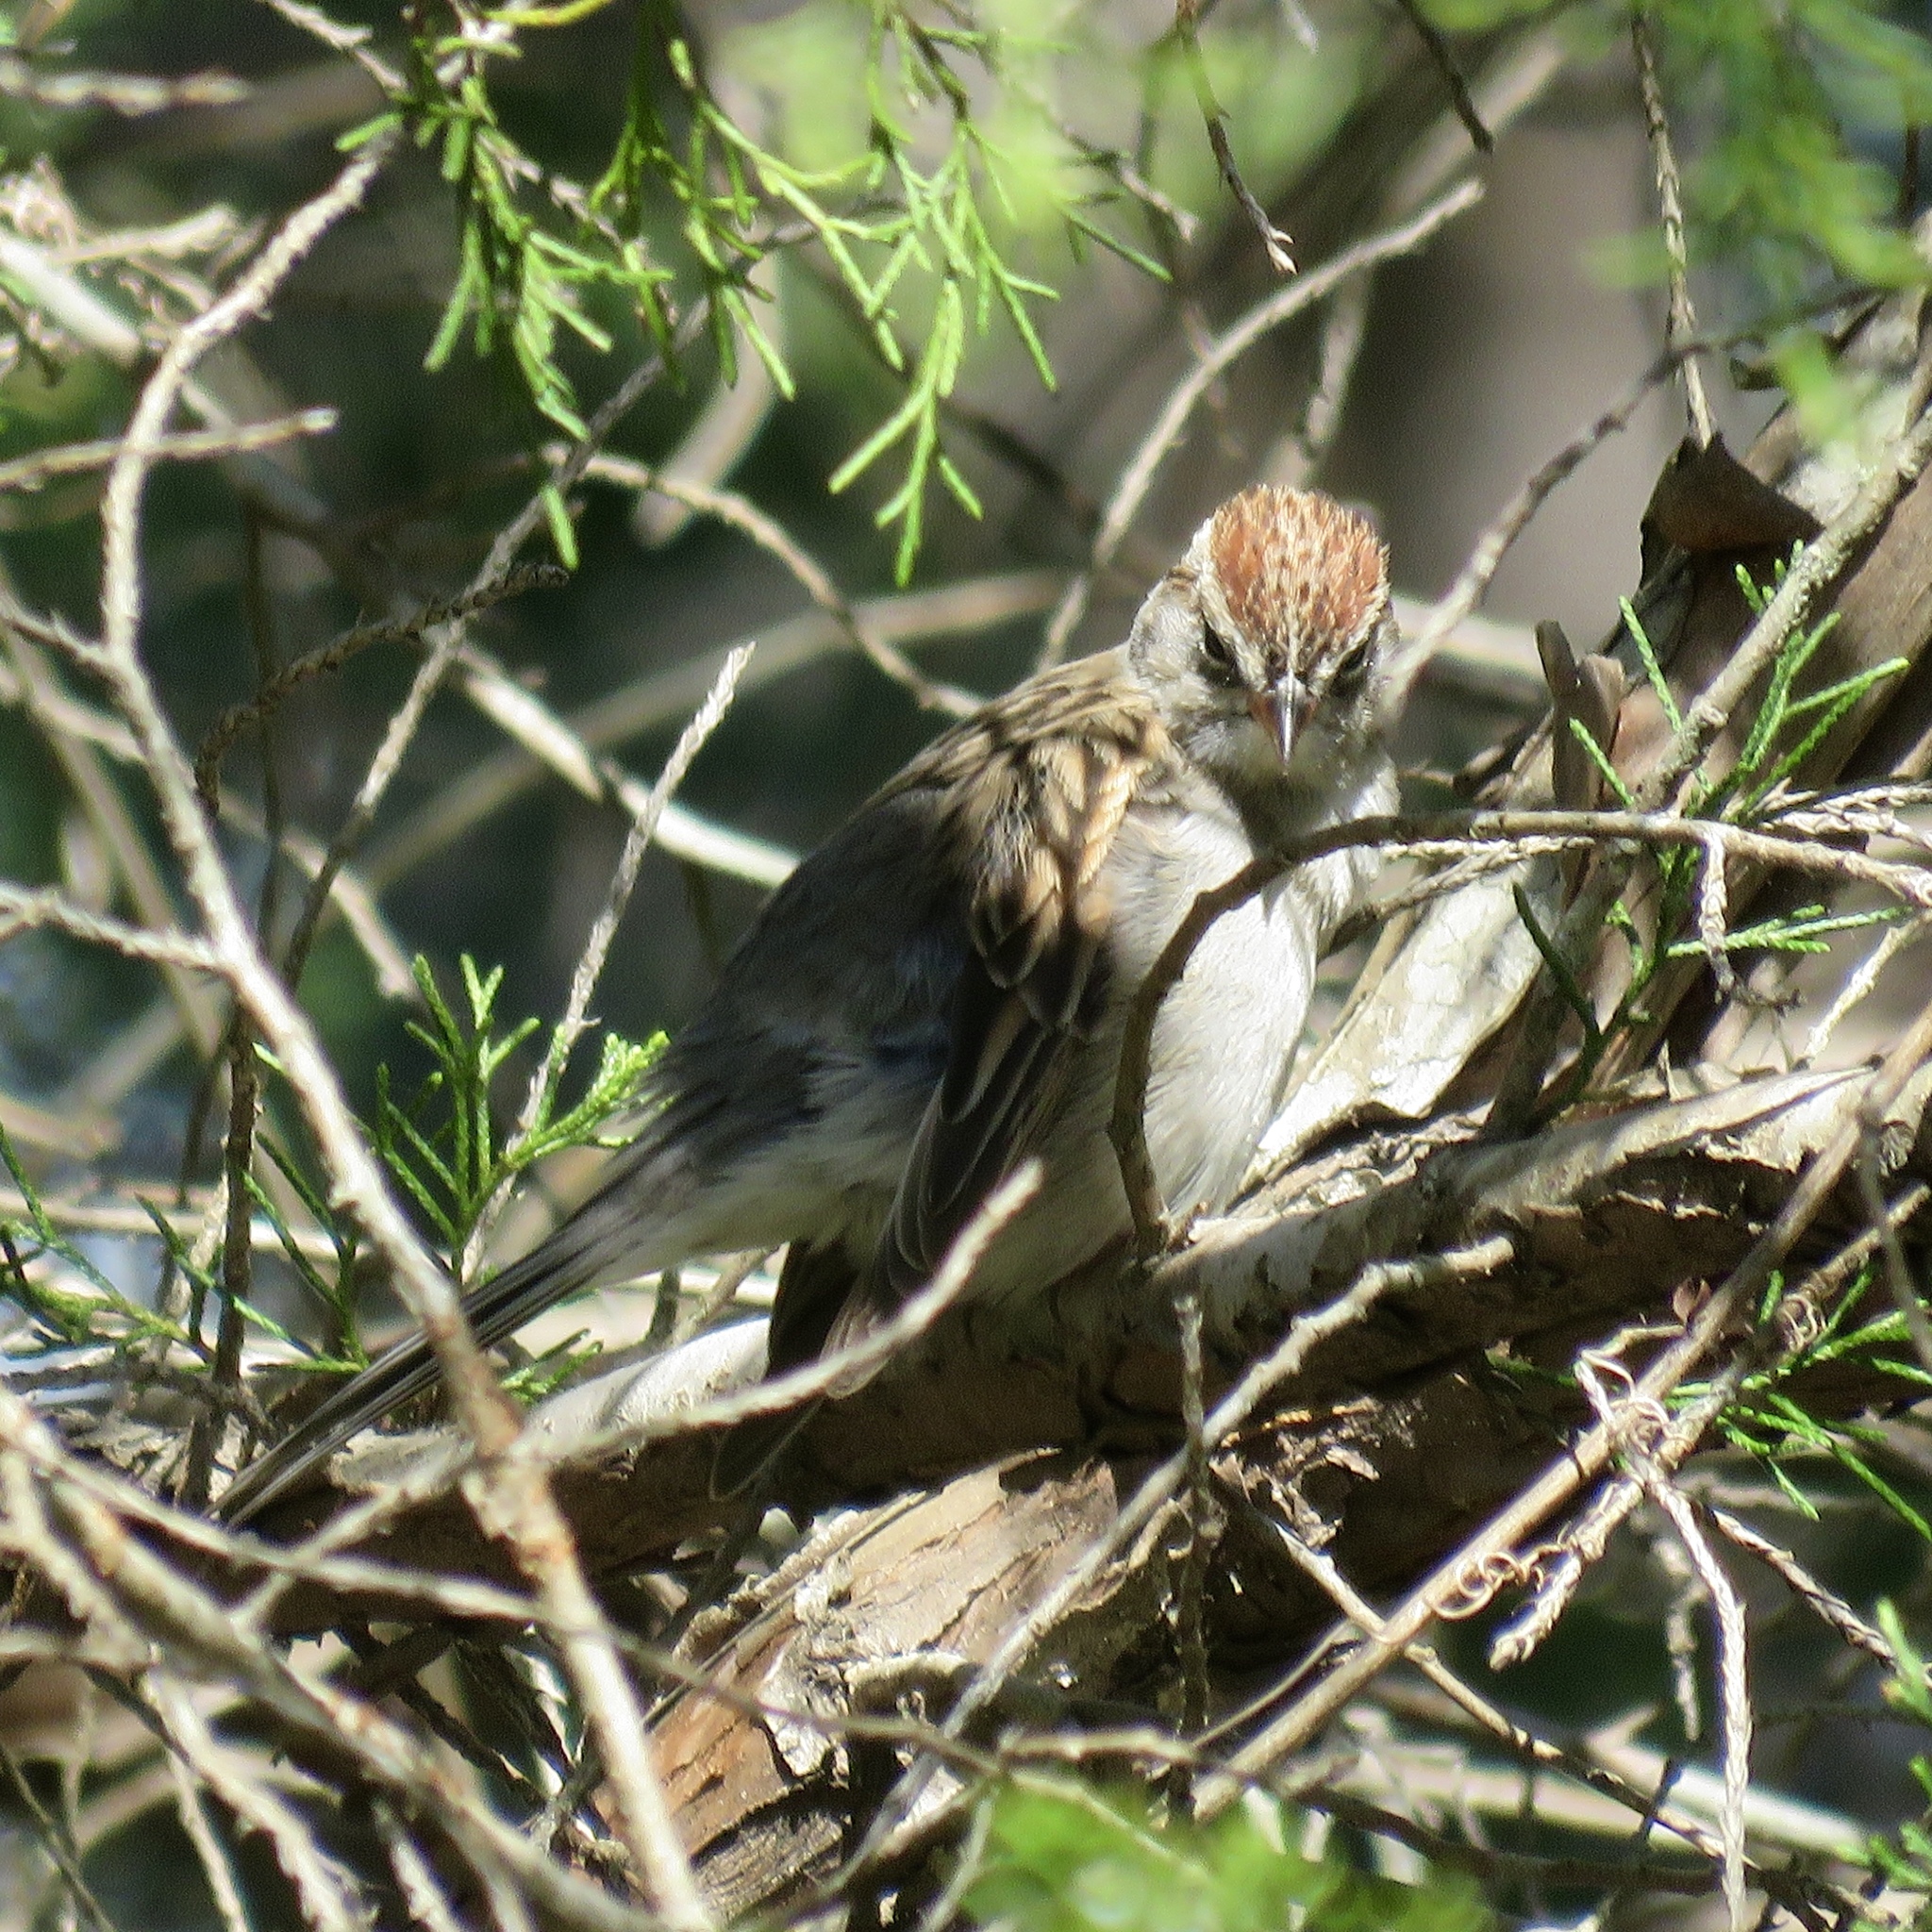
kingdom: Animalia
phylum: Chordata
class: Aves
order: Passeriformes
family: Passerellidae
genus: Spizella
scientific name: Spizella passerina
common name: Chipping sparrow
